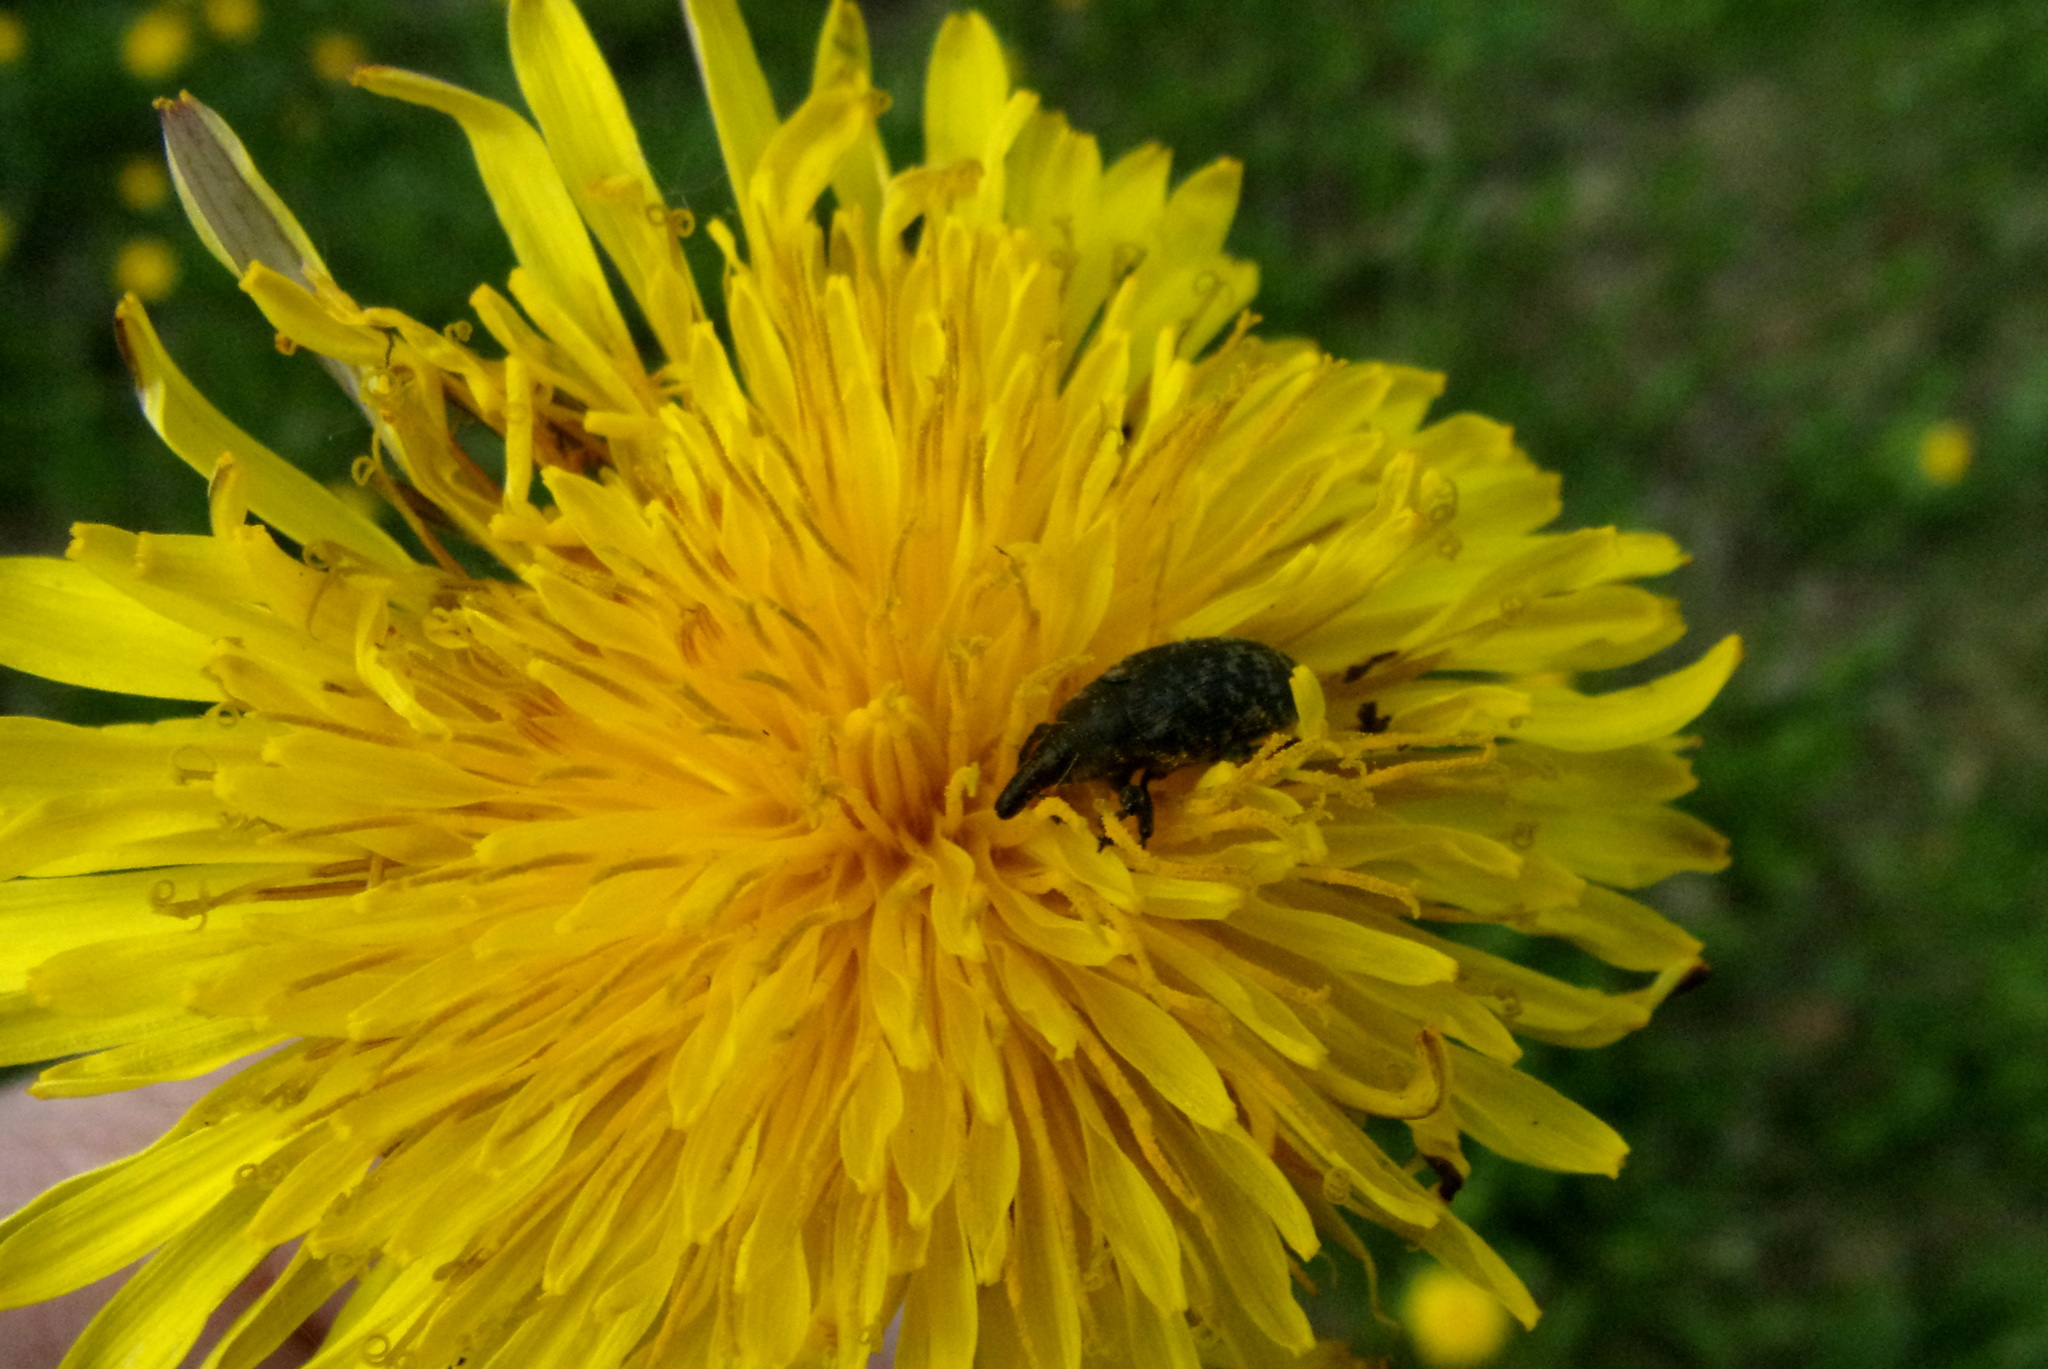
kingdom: Animalia
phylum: Arthropoda
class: Insecta
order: Coleoptera
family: Curculionidae
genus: Larinus
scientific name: Larinus turbinatus
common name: Weevil
